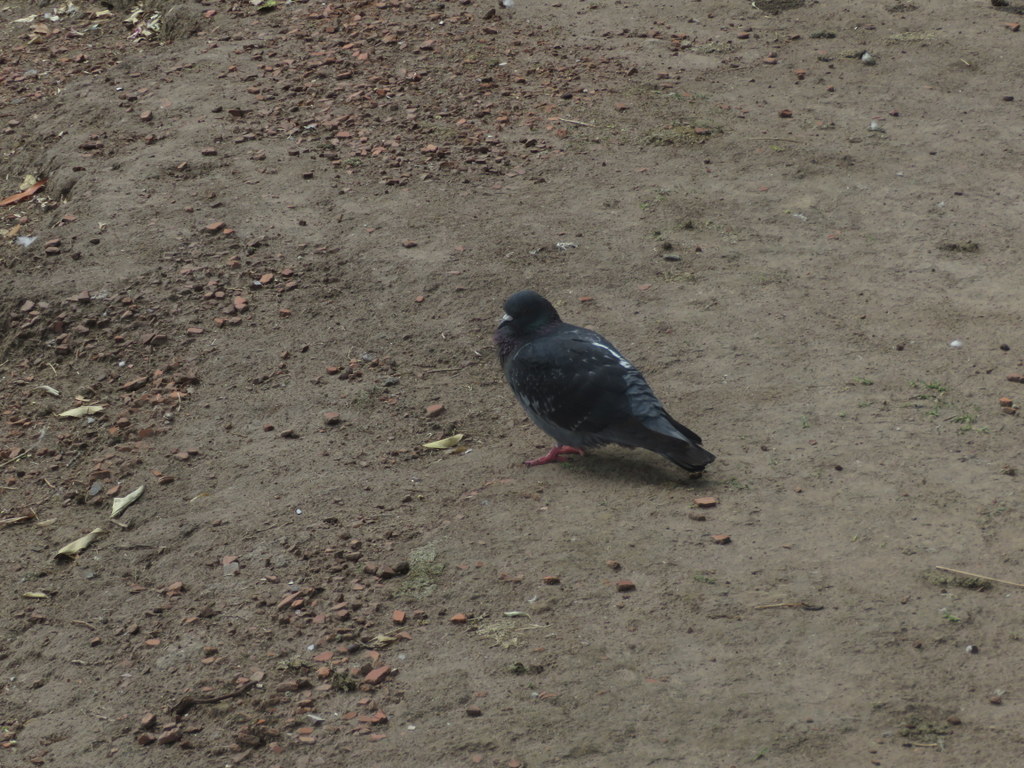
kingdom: Animalia
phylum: Chordata
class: Aves
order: Columbiformes
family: Columbidae
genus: Columba
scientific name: Columba livia
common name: Rock pigeon
